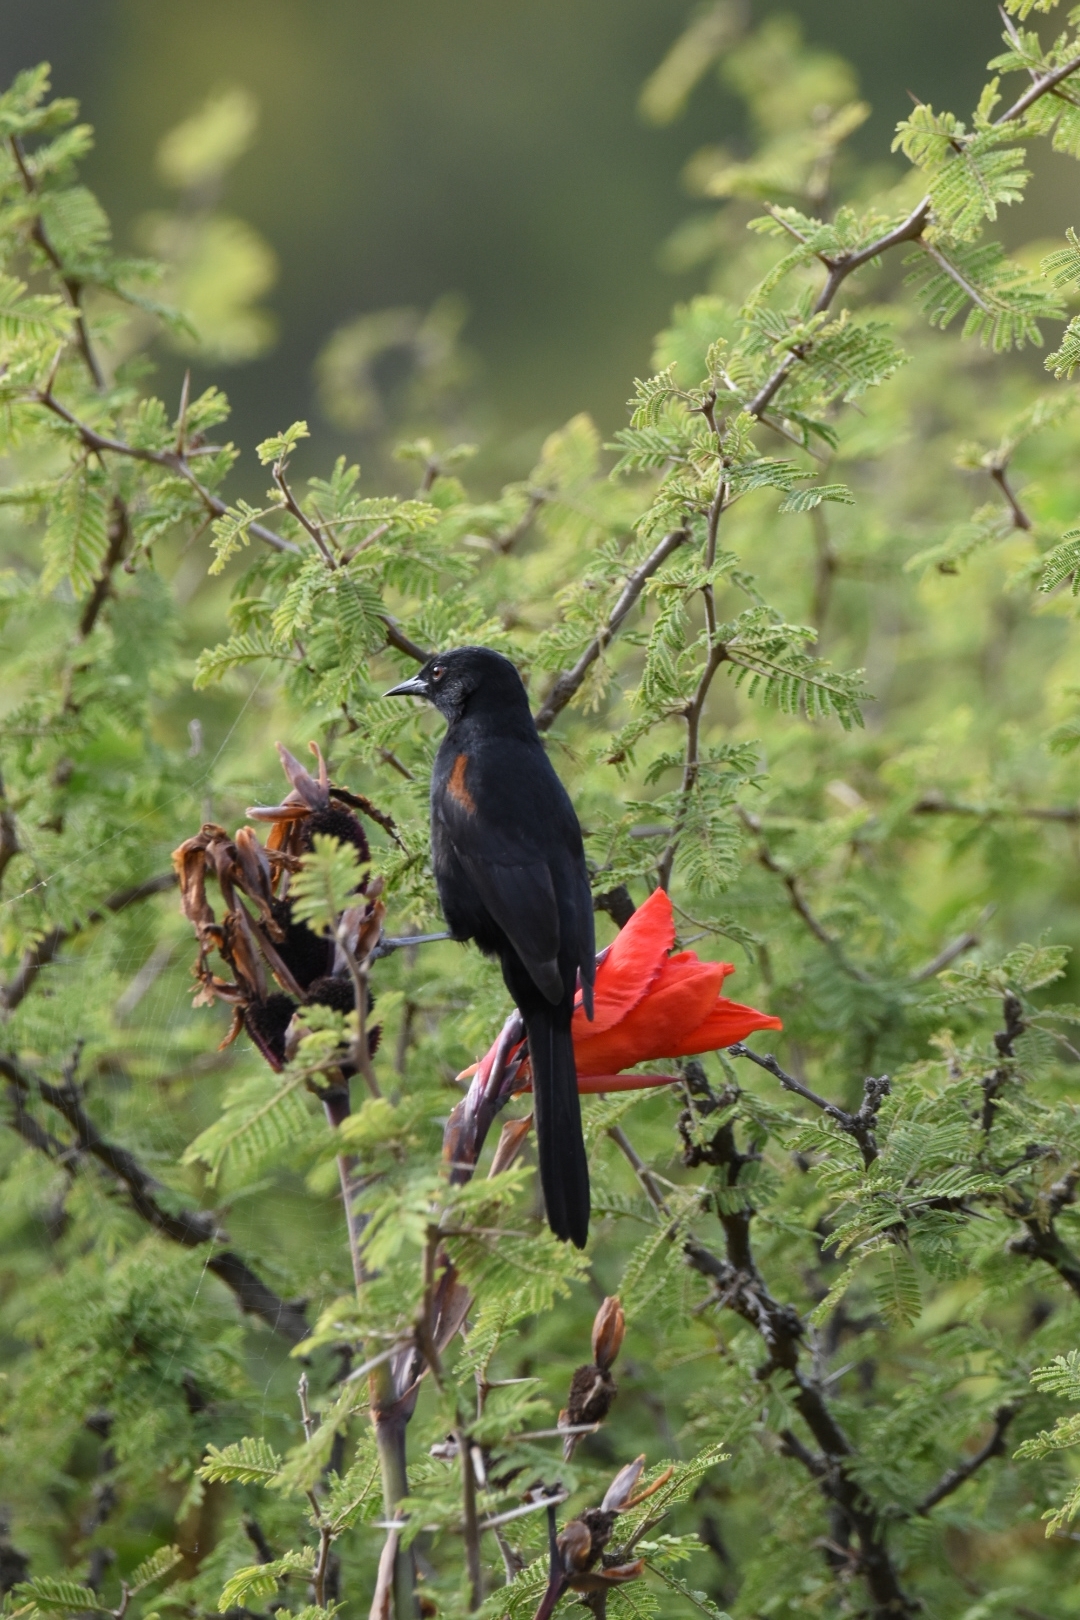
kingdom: Animalia
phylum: Chordata
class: Aves
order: Passeriformes
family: Icteridae
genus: Icterus
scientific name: Icterus cayanensis
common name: Epaulet oriole
